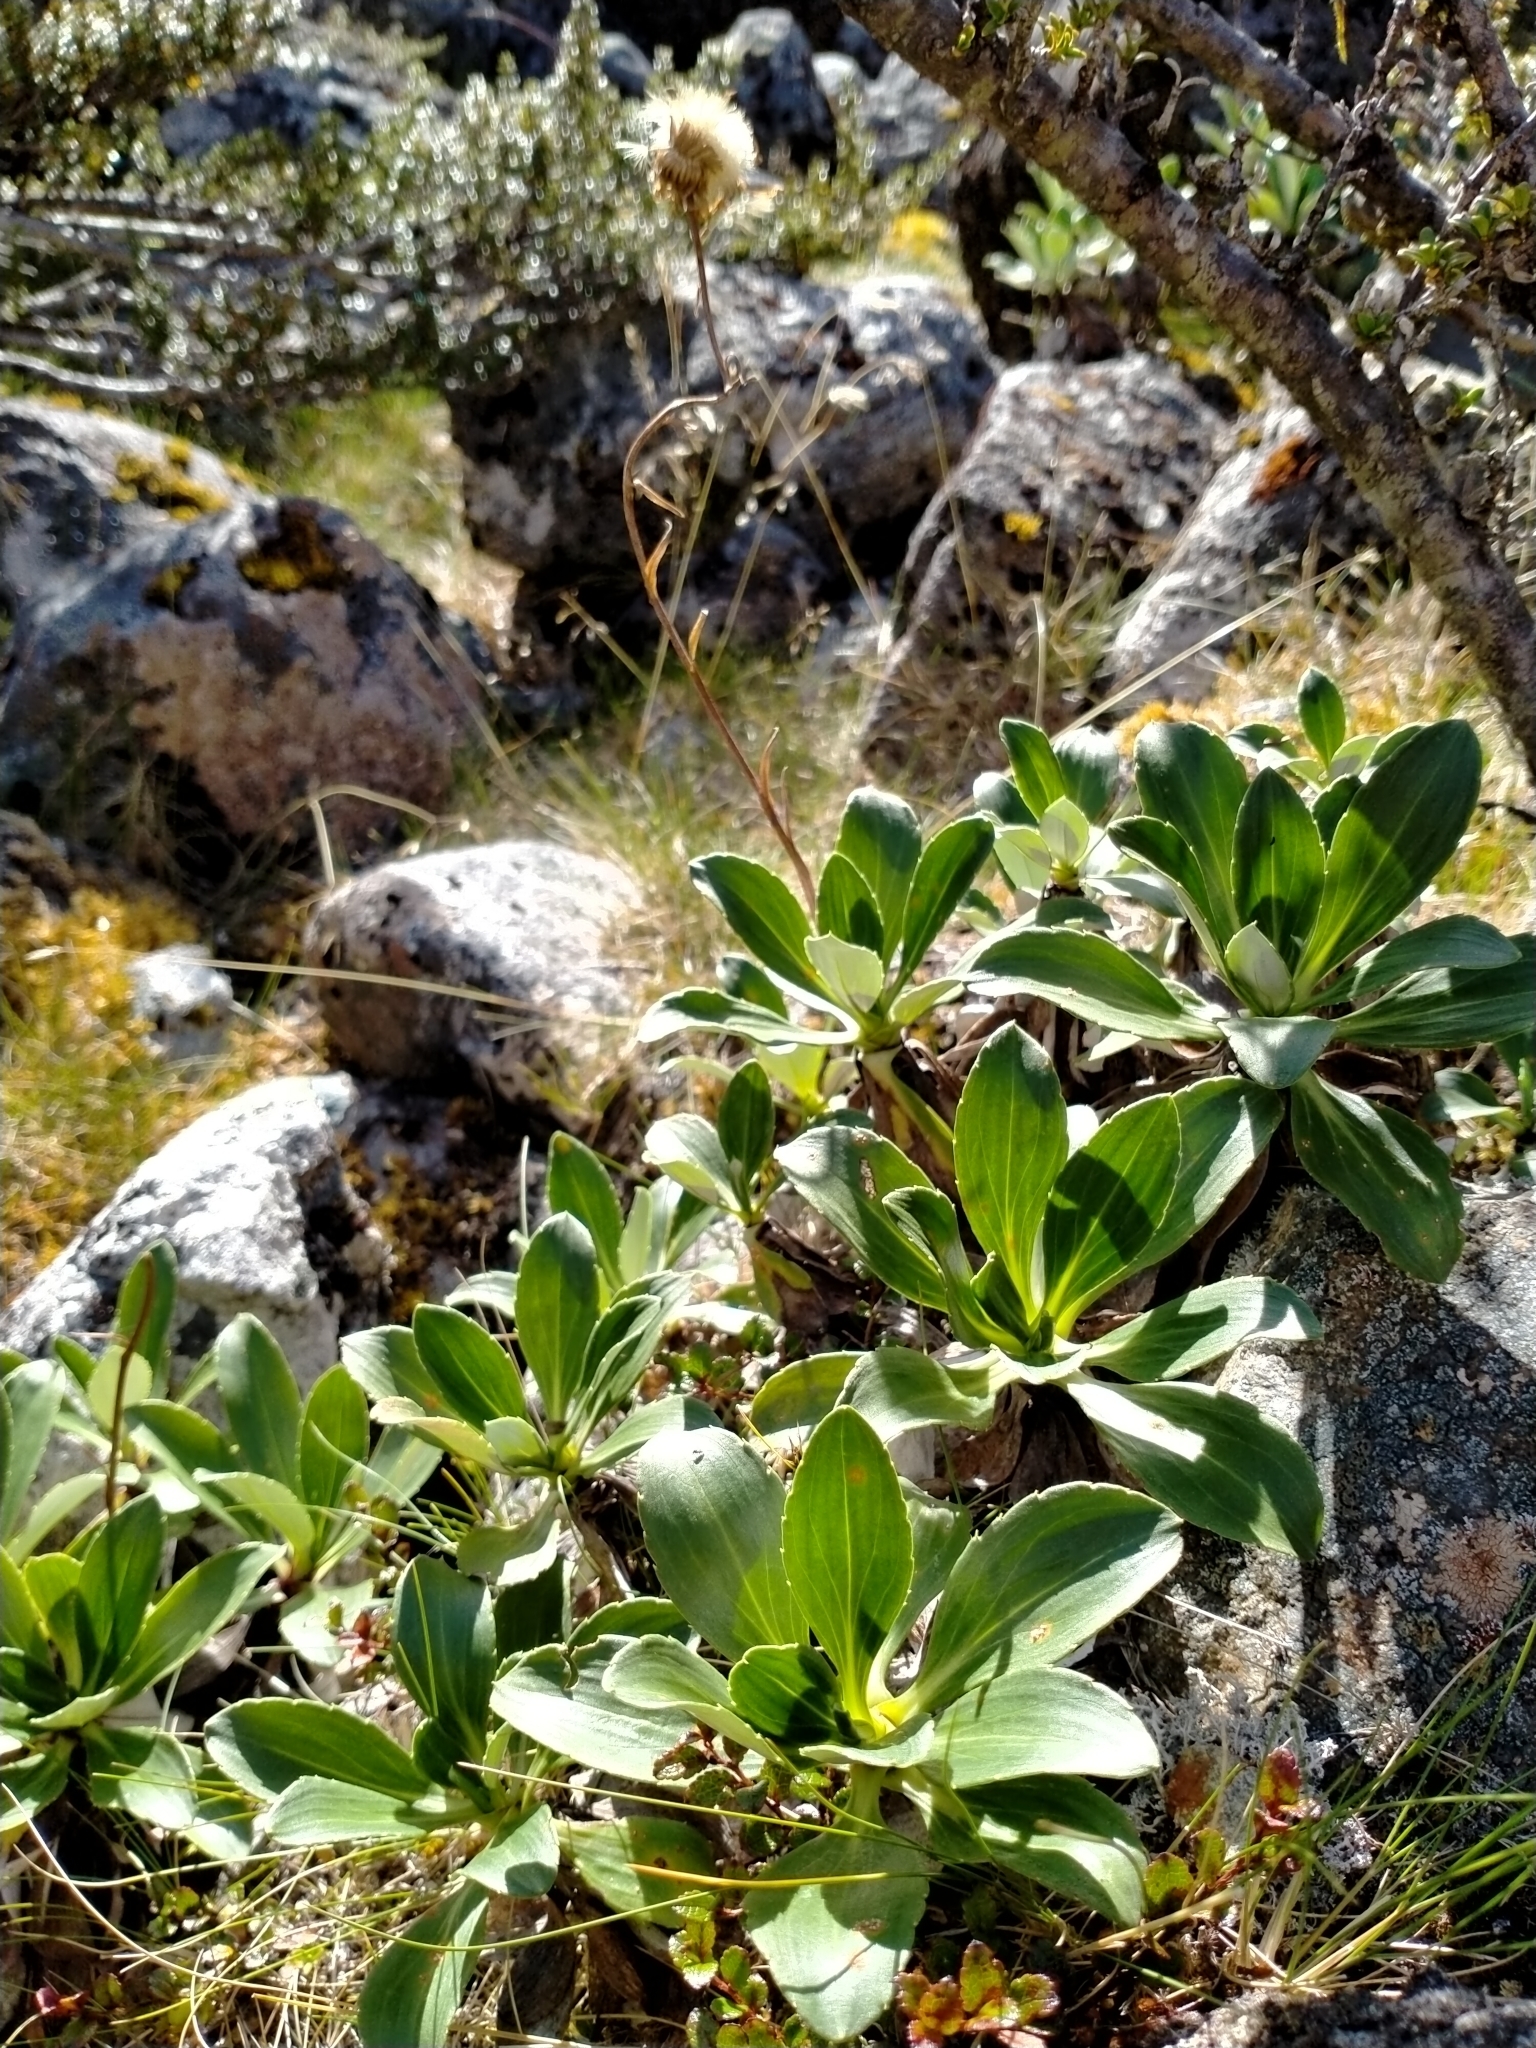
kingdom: Plantae
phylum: Tracheophyta
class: Magnoliopsida
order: Asterales
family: Asteraceae
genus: Celmisia
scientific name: Celmisia holosericea
